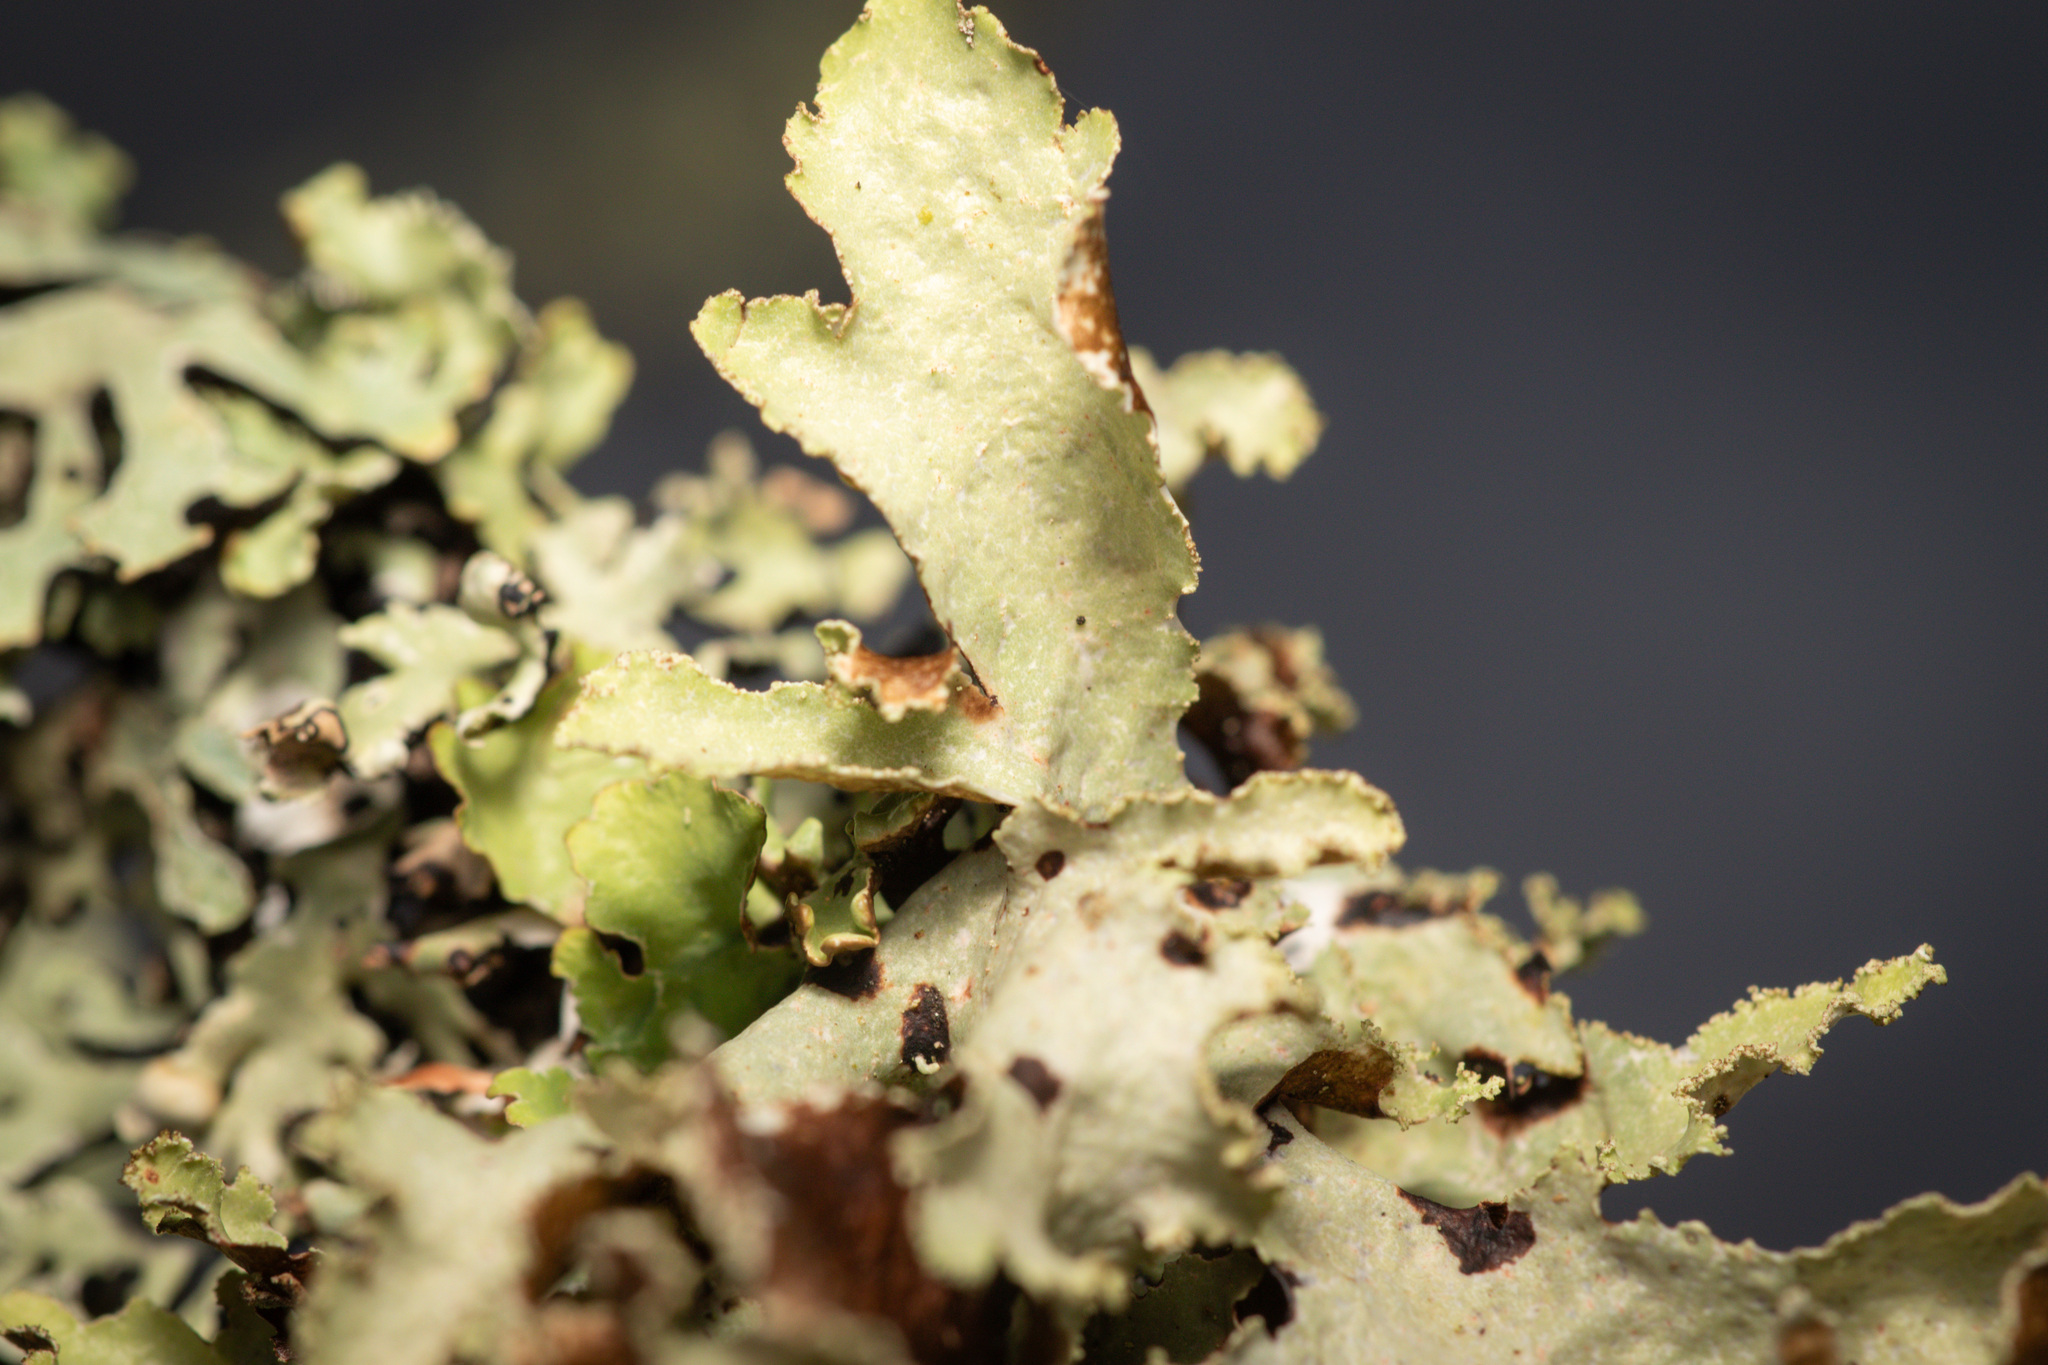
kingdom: Fungi
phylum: Ascomycota
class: Lecanoromycetes
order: Lecanorales
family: Parmeliaceae
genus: Platismatia
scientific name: Platismatia glauca
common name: Varied rag lichen
